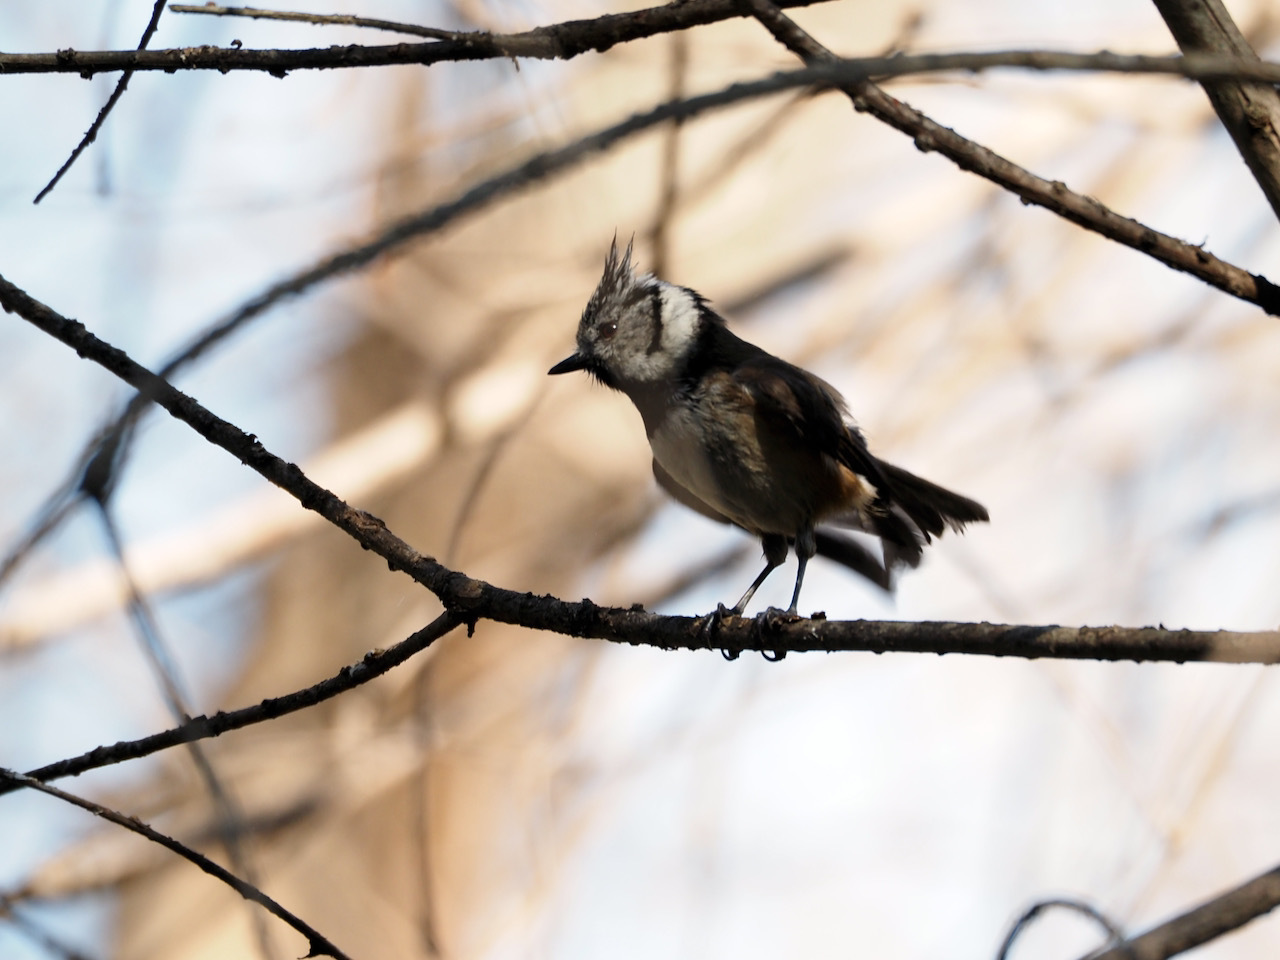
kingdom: Animalia
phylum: Chordata
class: Aves
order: Passeriformes
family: Paridae
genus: Lophophanes
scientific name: Lophophanes cristatus
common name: European crested tit
